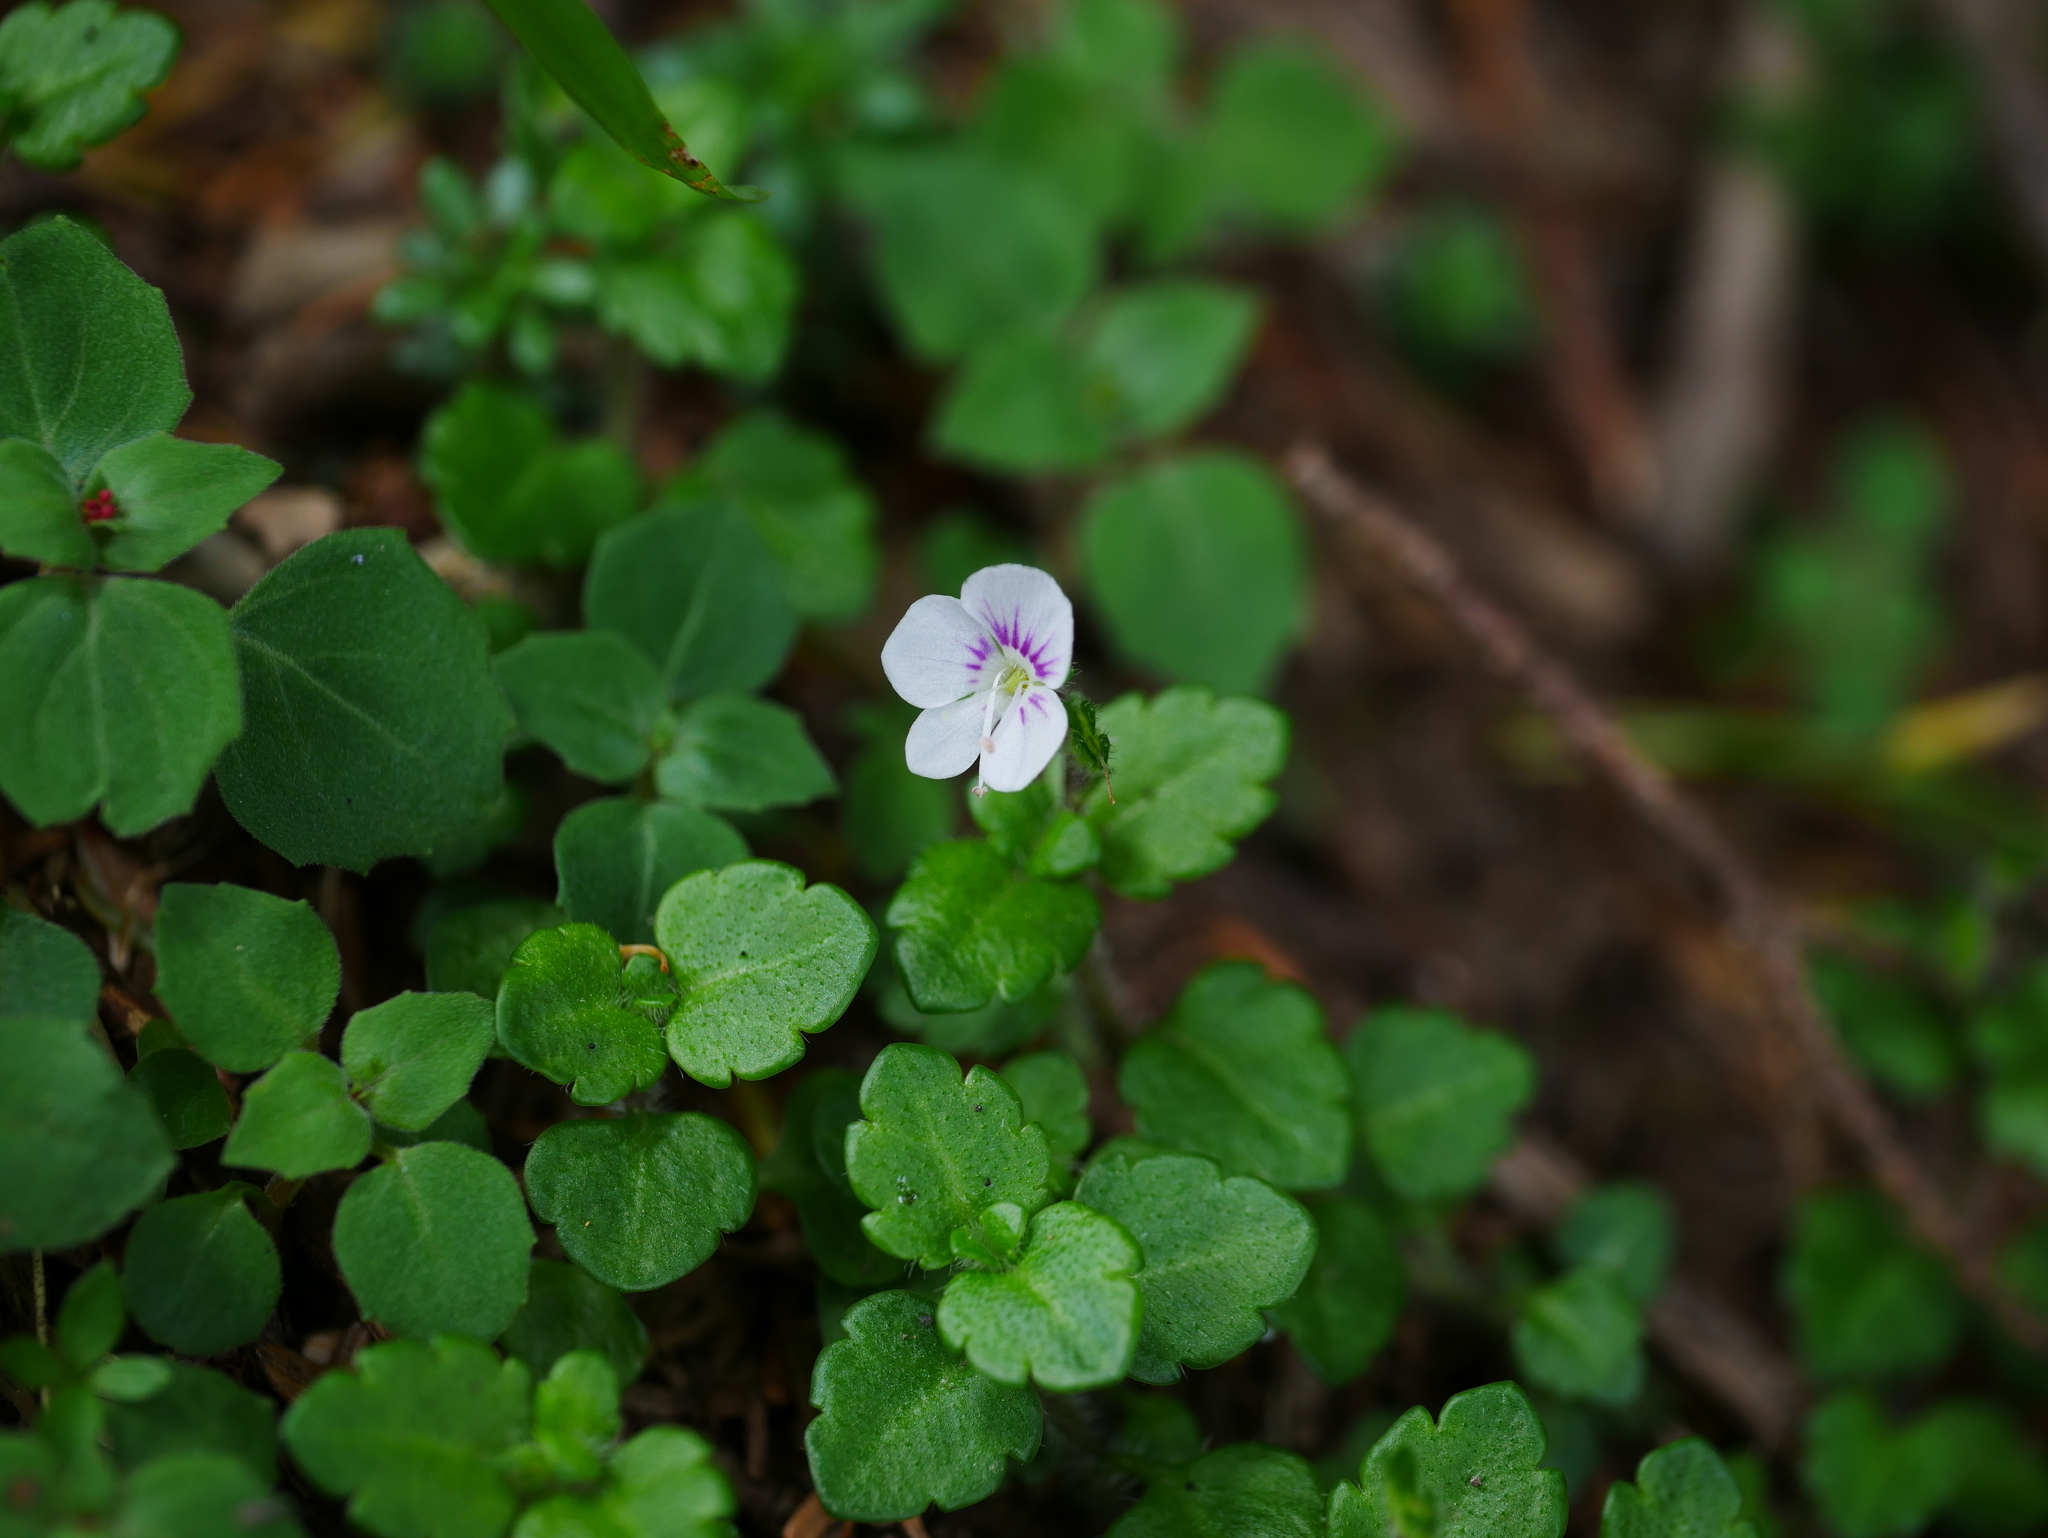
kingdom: Plantae
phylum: Tracheophyta
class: Magnoliopsida
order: Lamiales
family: Plantaginaceae
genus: Veronica
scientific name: Veronica oligosperma
